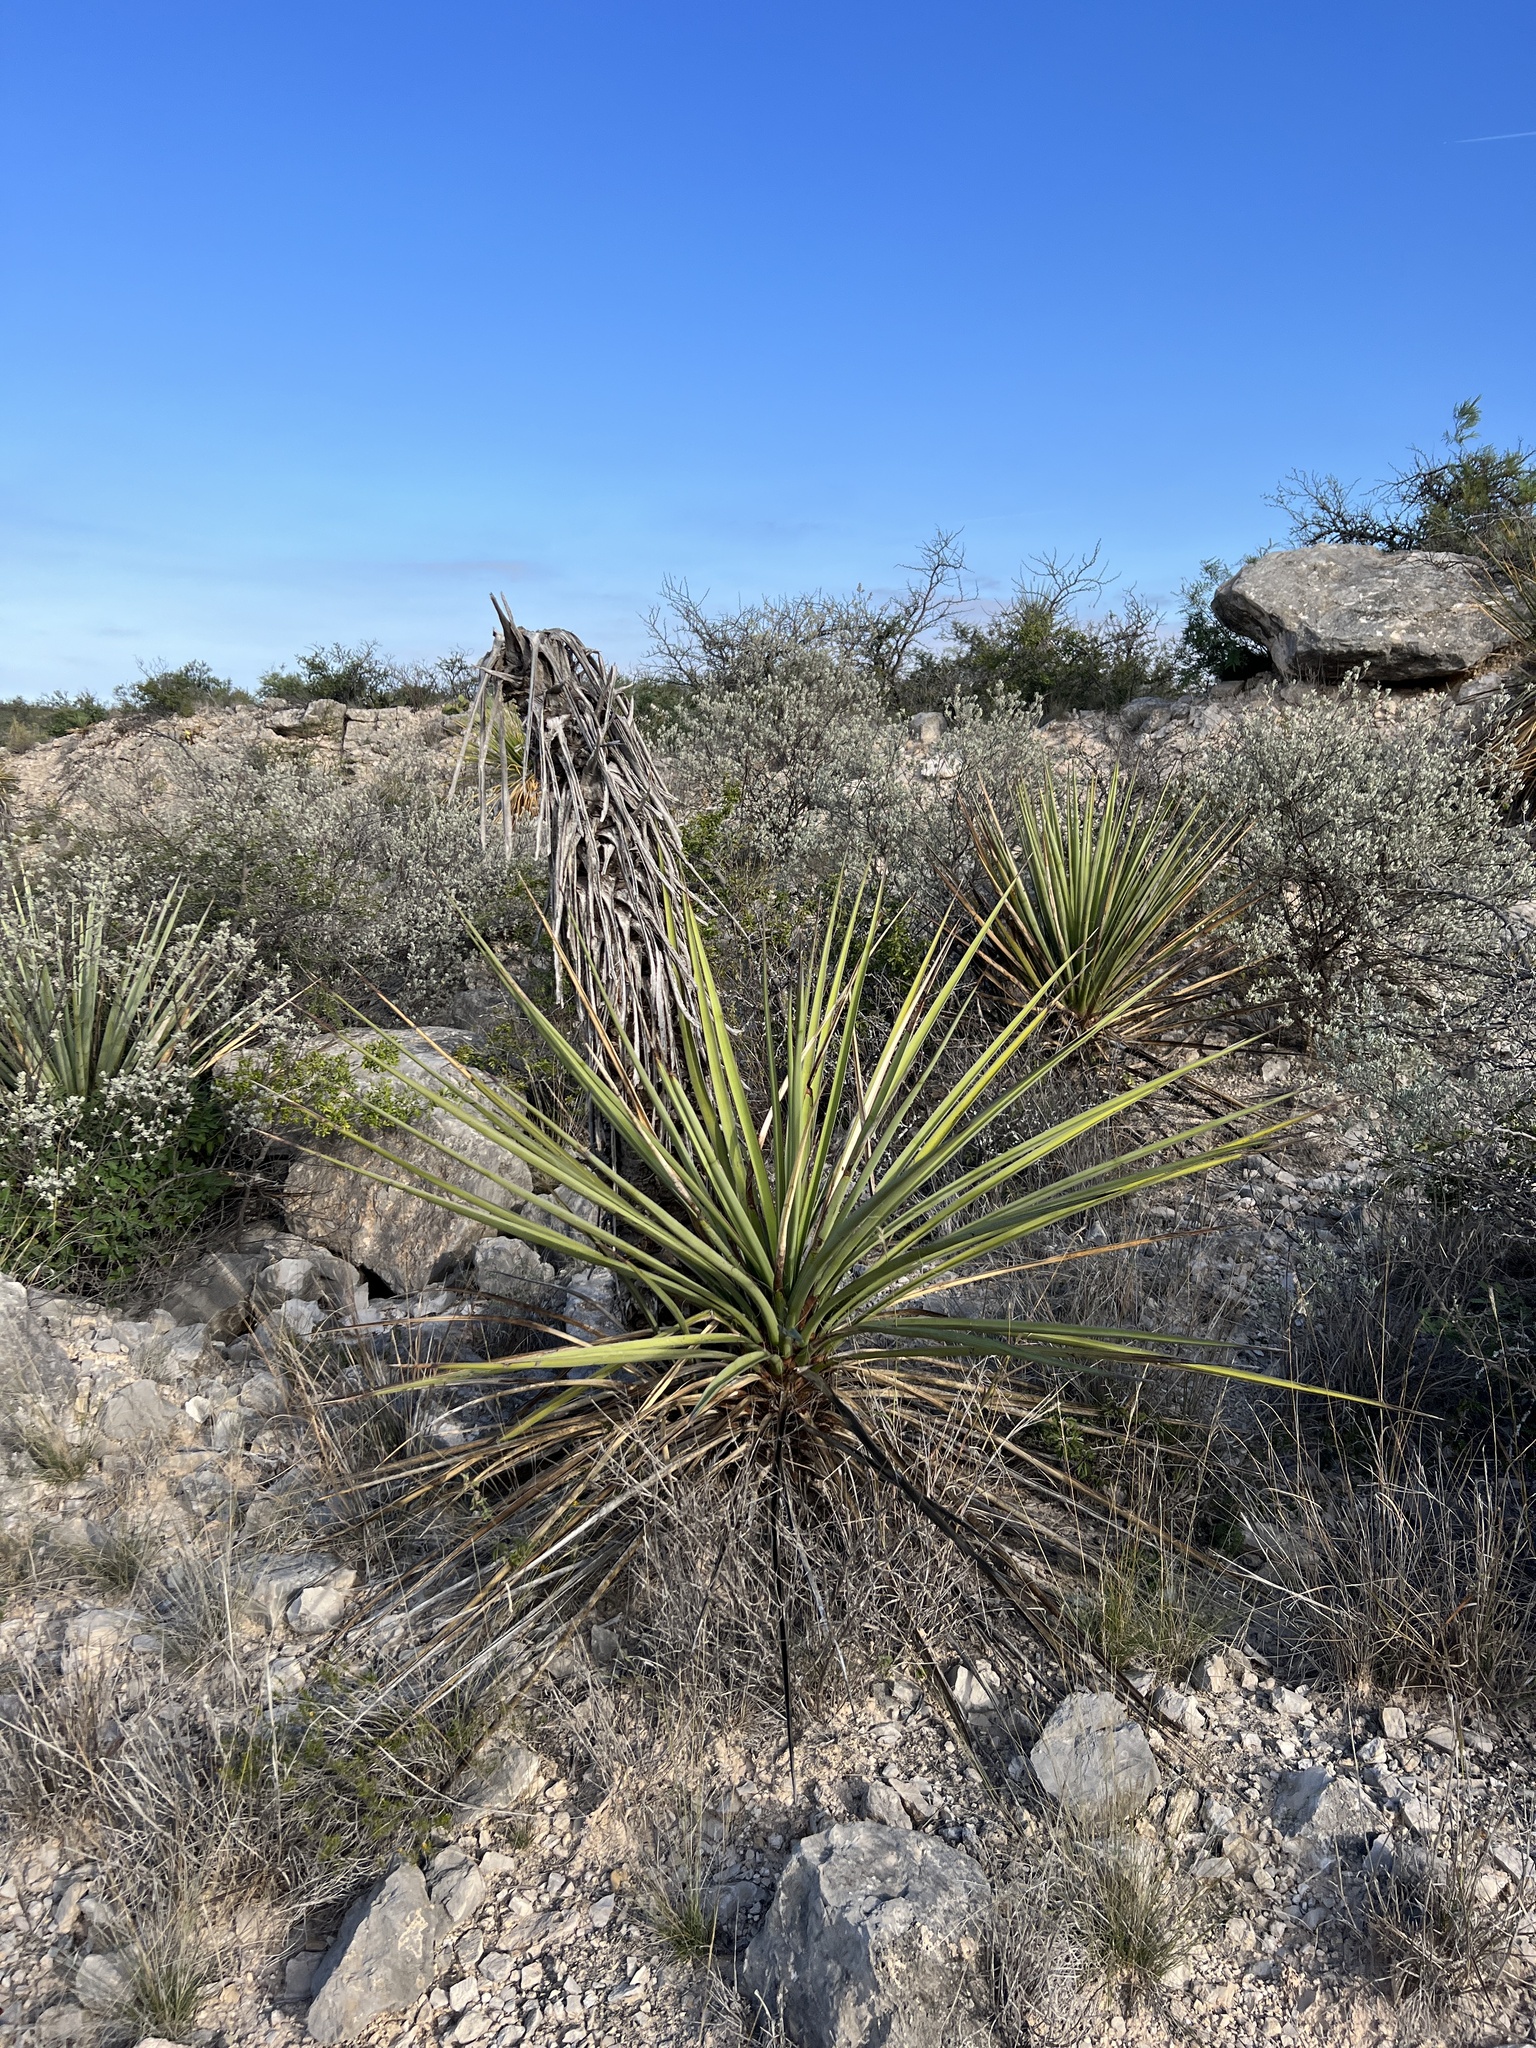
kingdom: Plantae
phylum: Tracheophyta
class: Liliopsida
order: Asparagales
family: Asparagaceae
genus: Yucca
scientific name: Yucca treculiana
